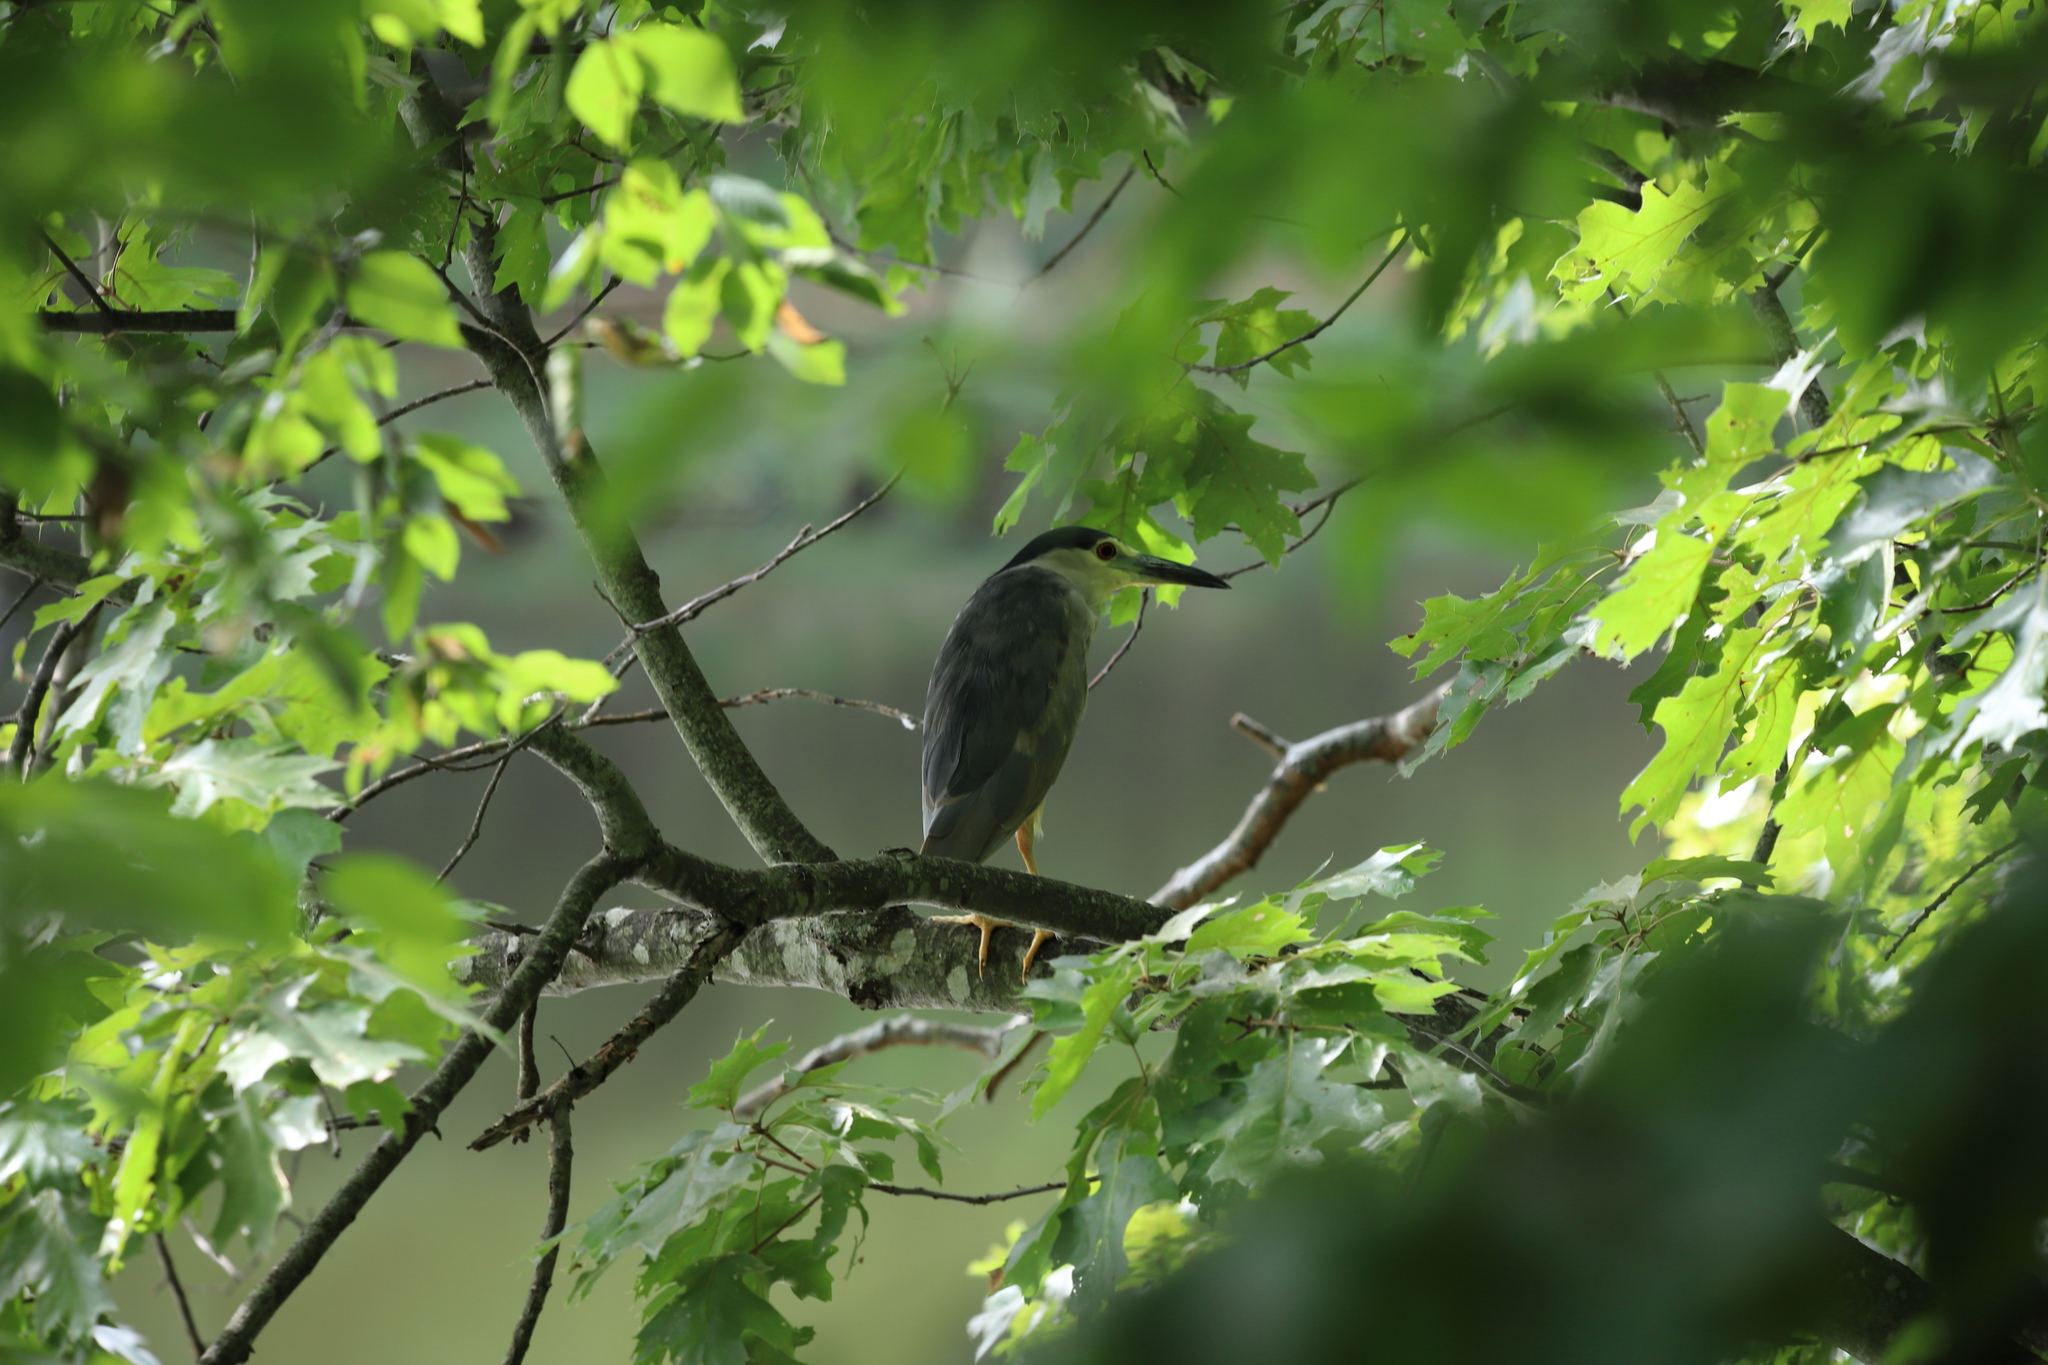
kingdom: Animalia
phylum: Chordata
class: Aves
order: Pelecaniformes
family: Ardeidae
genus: Nycticorax
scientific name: Nycticorax nycticorax
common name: Black-crowned night heron
